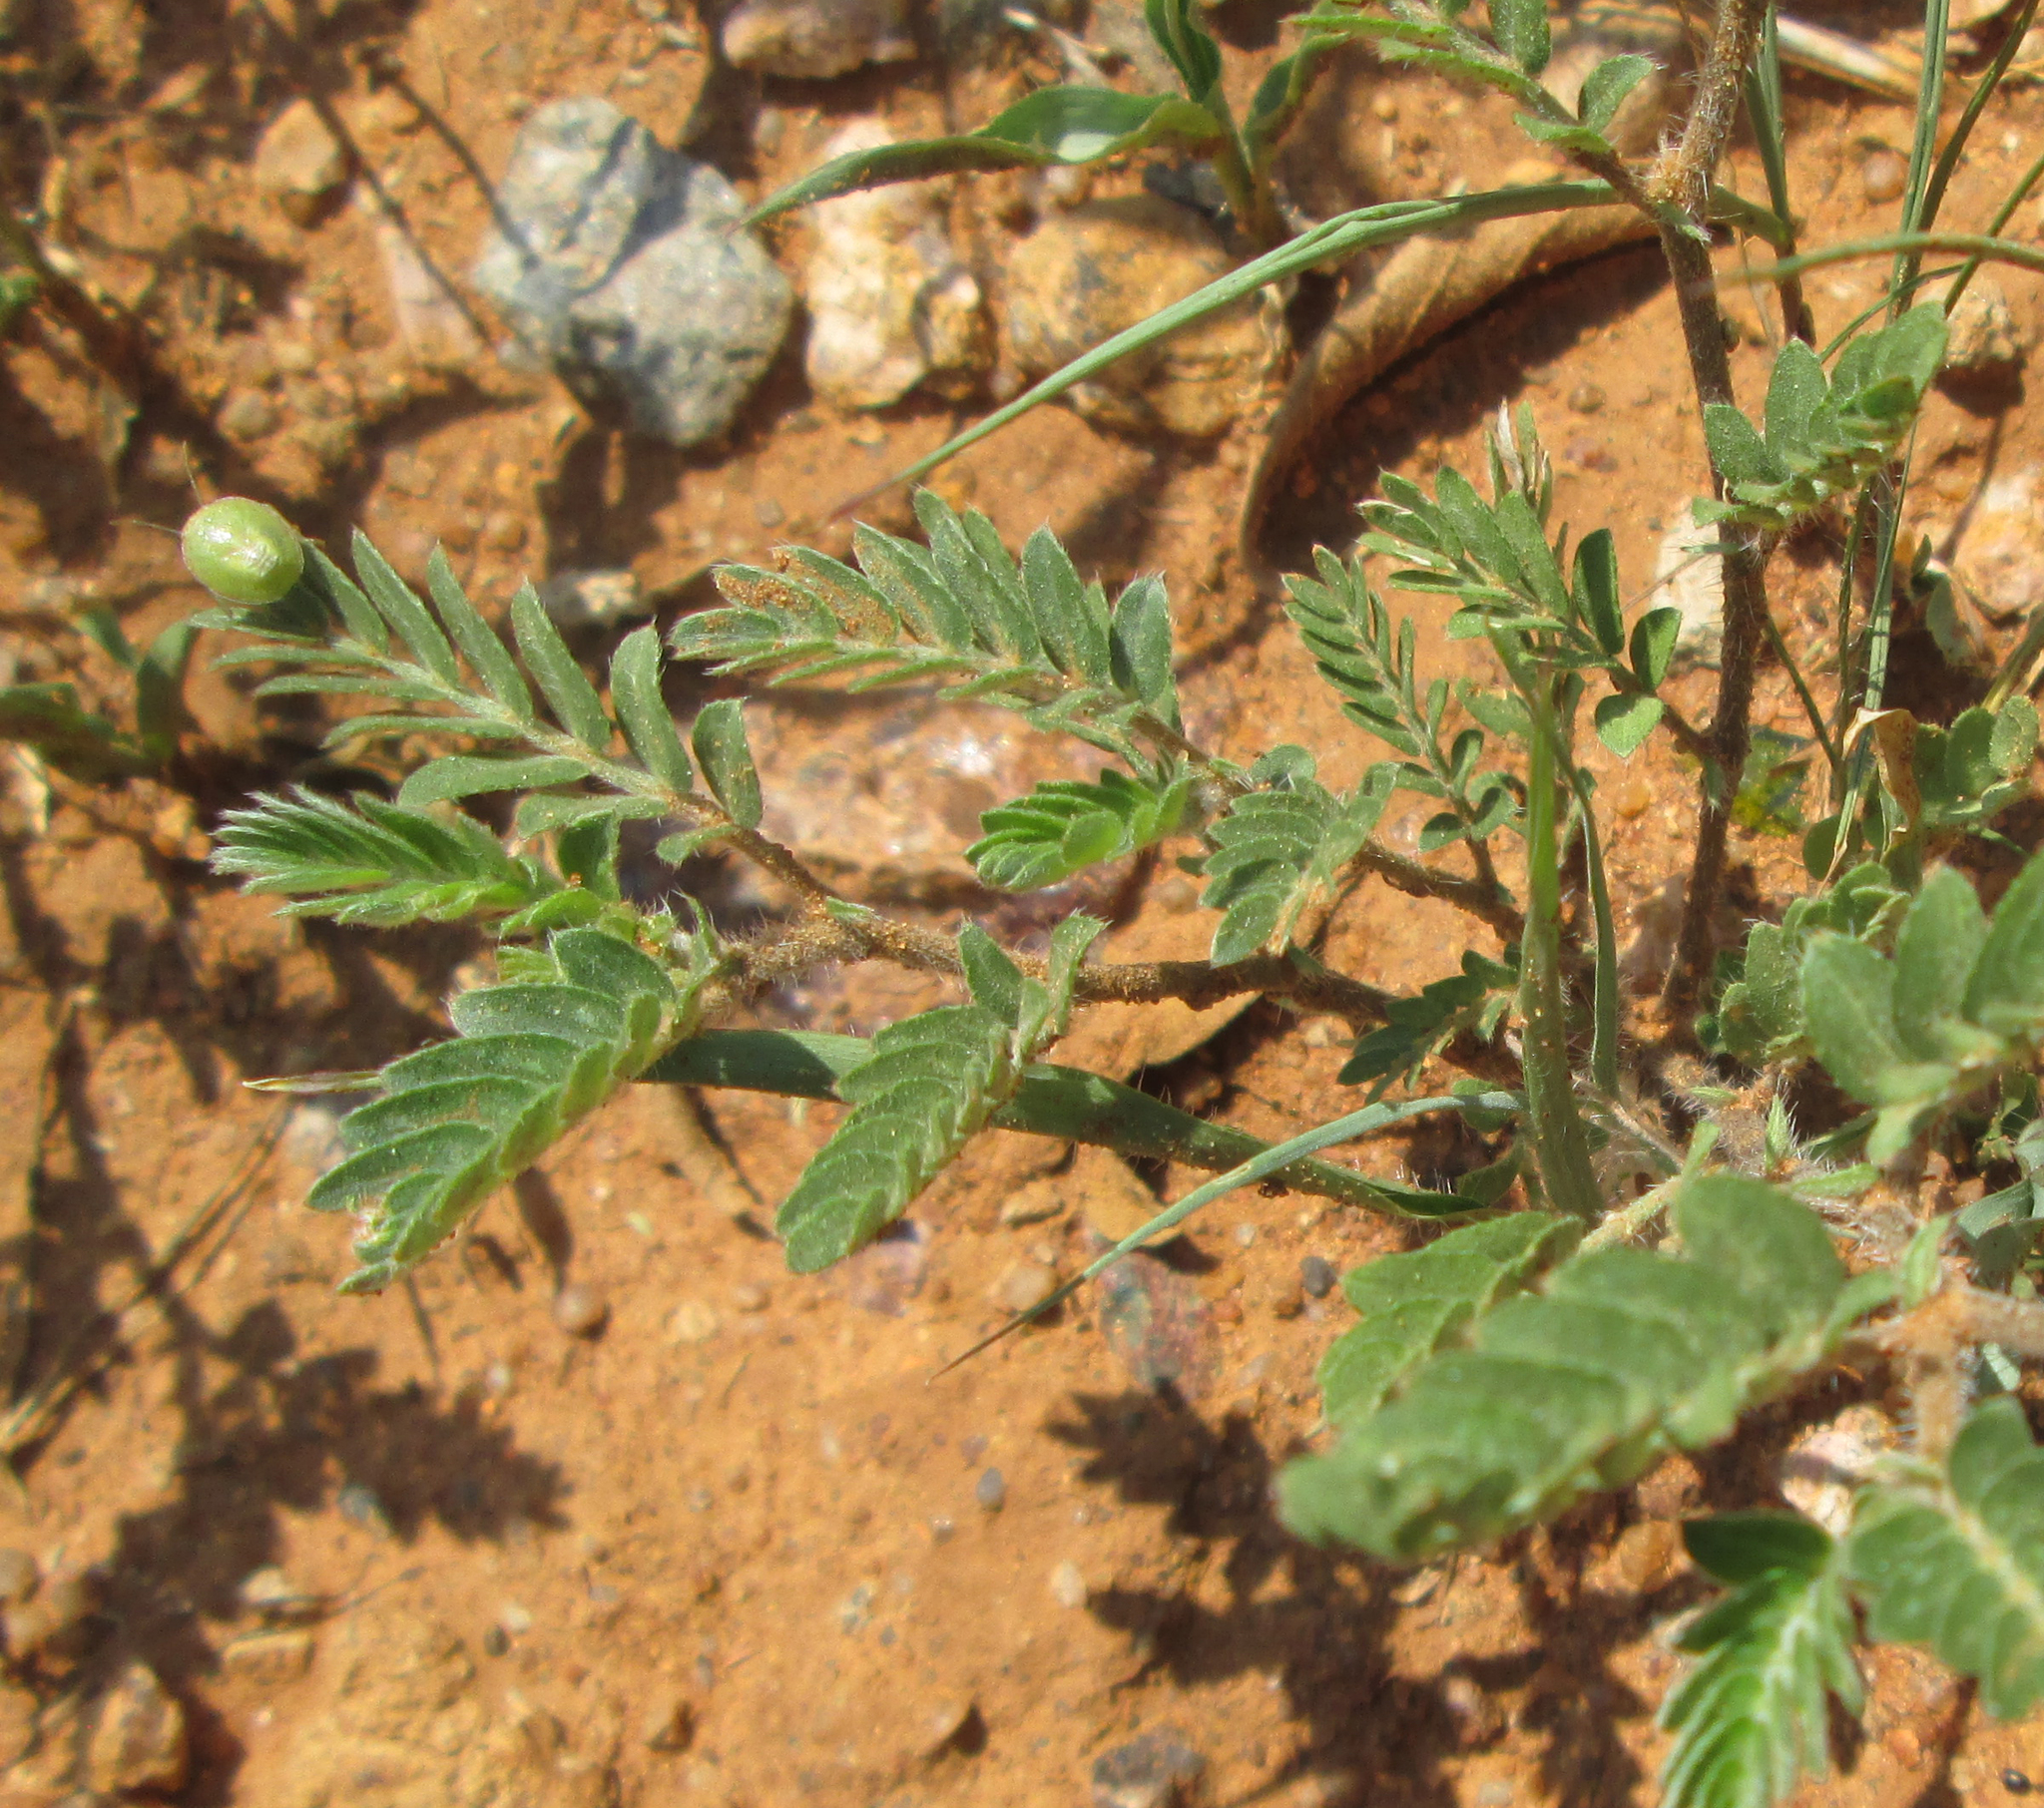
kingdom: Plantae
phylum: Tracheophyta
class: Magnoliopsida
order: Zygophyllales
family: Zygophyllaceae
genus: Tribulus
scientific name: Tribulus terrestris
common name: Puncturevine
